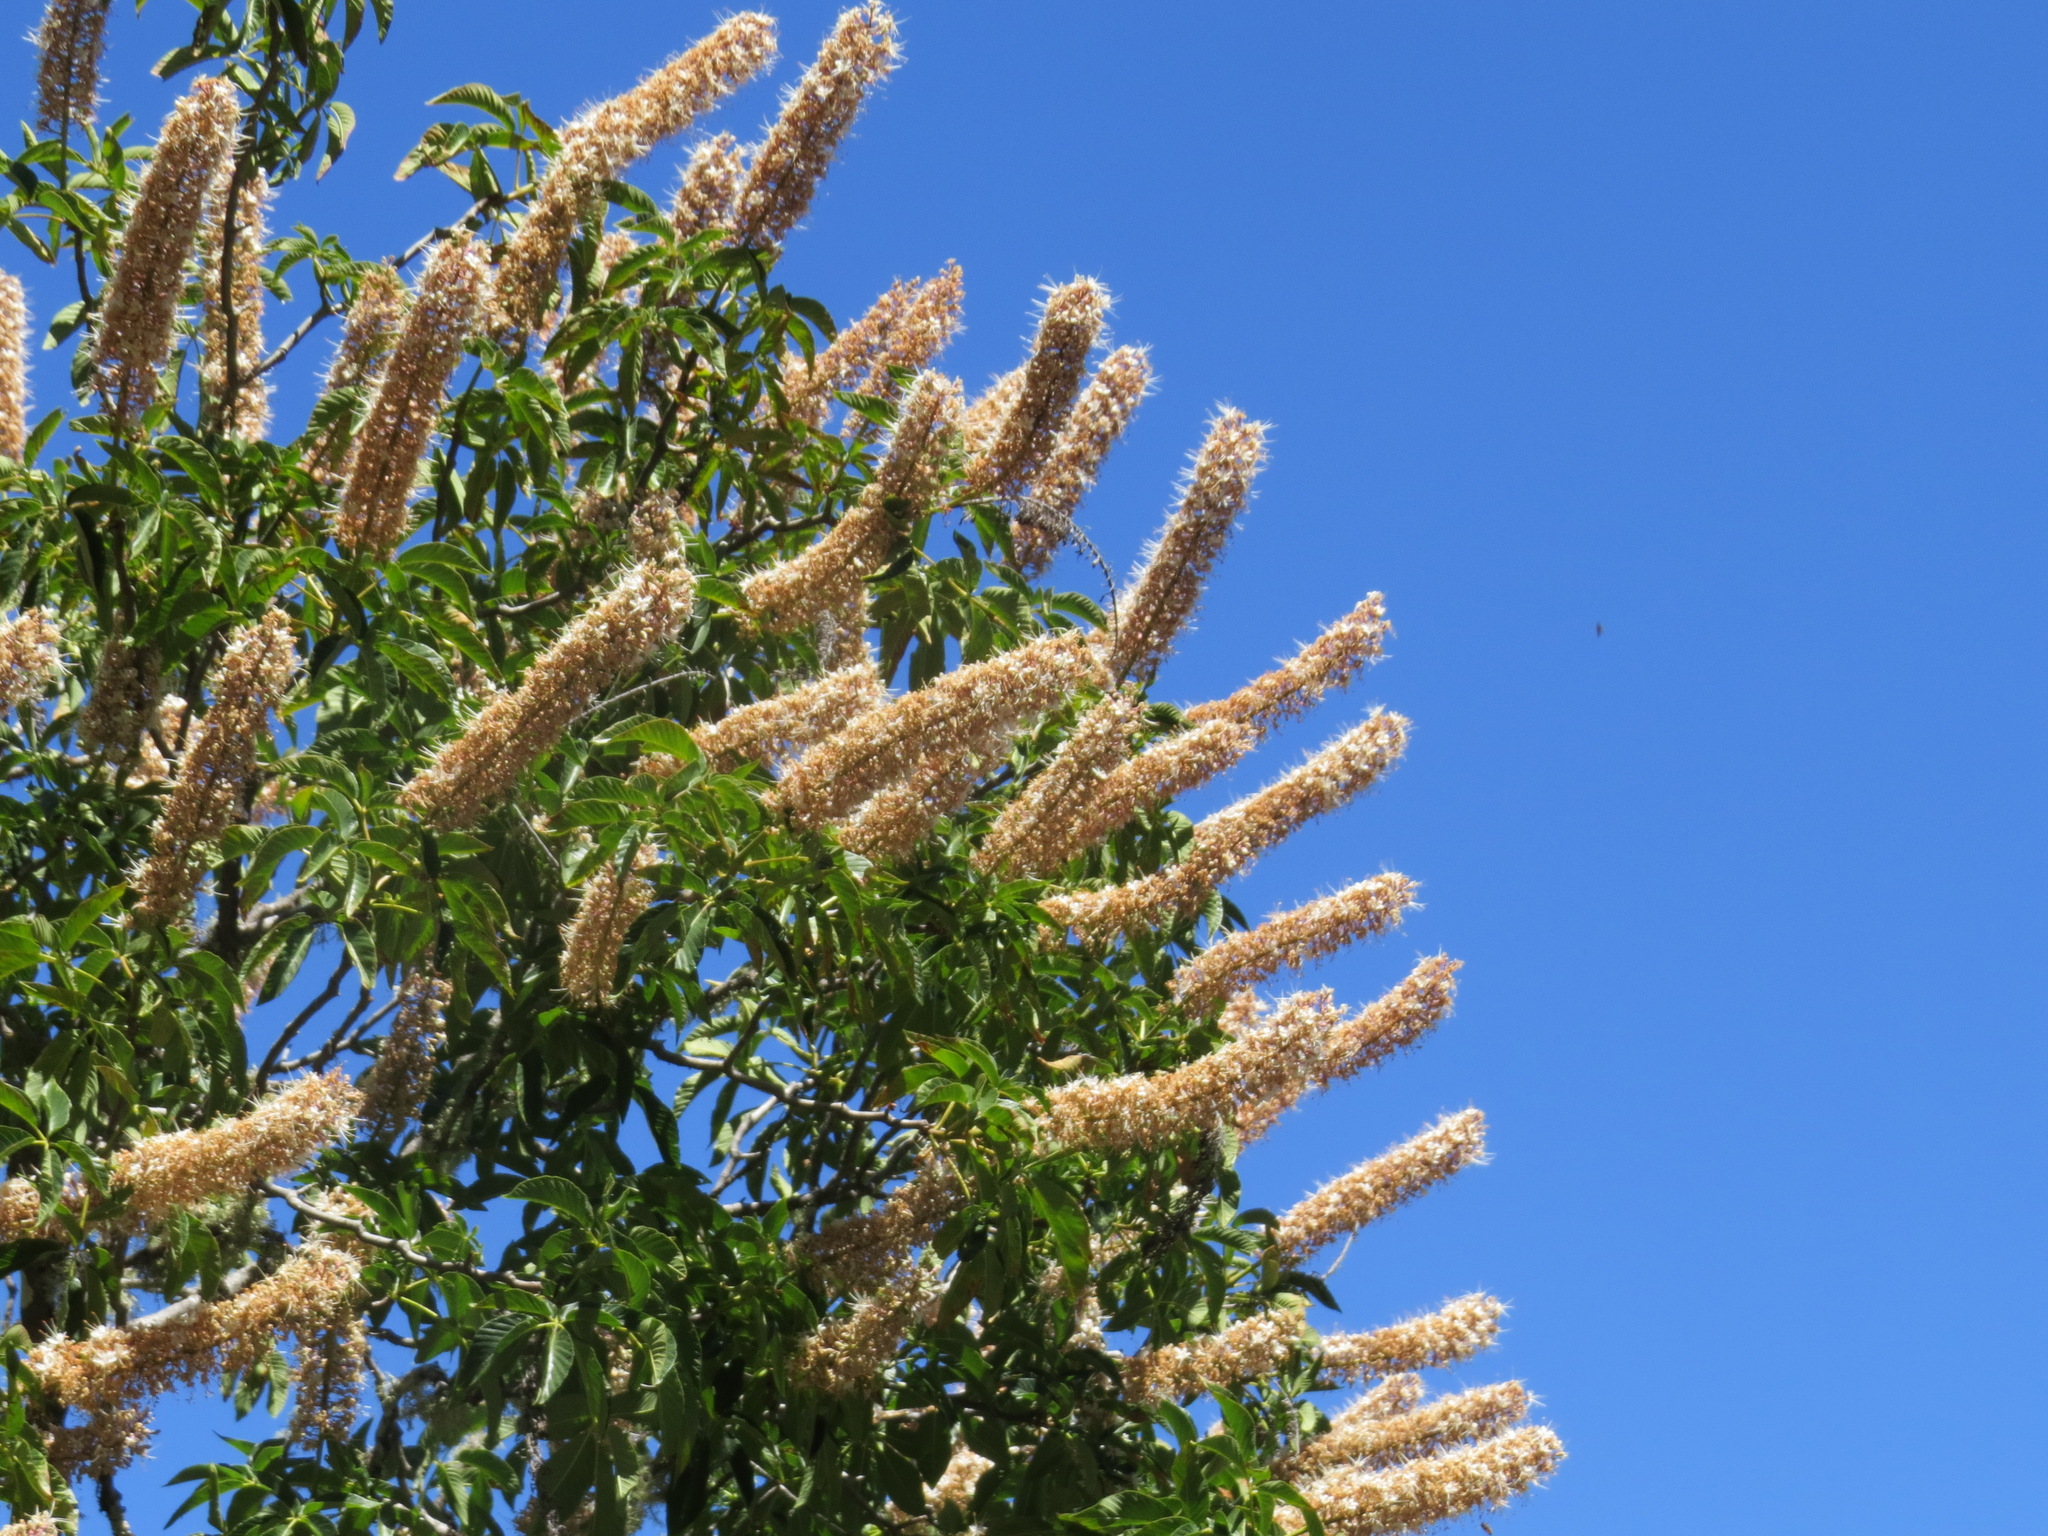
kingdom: Plantae
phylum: Tracheophyta
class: Magnoliopsida
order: Sapindales
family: Sapindaceae
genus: Aesculus
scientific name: Aesculus californica
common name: California buckeye
